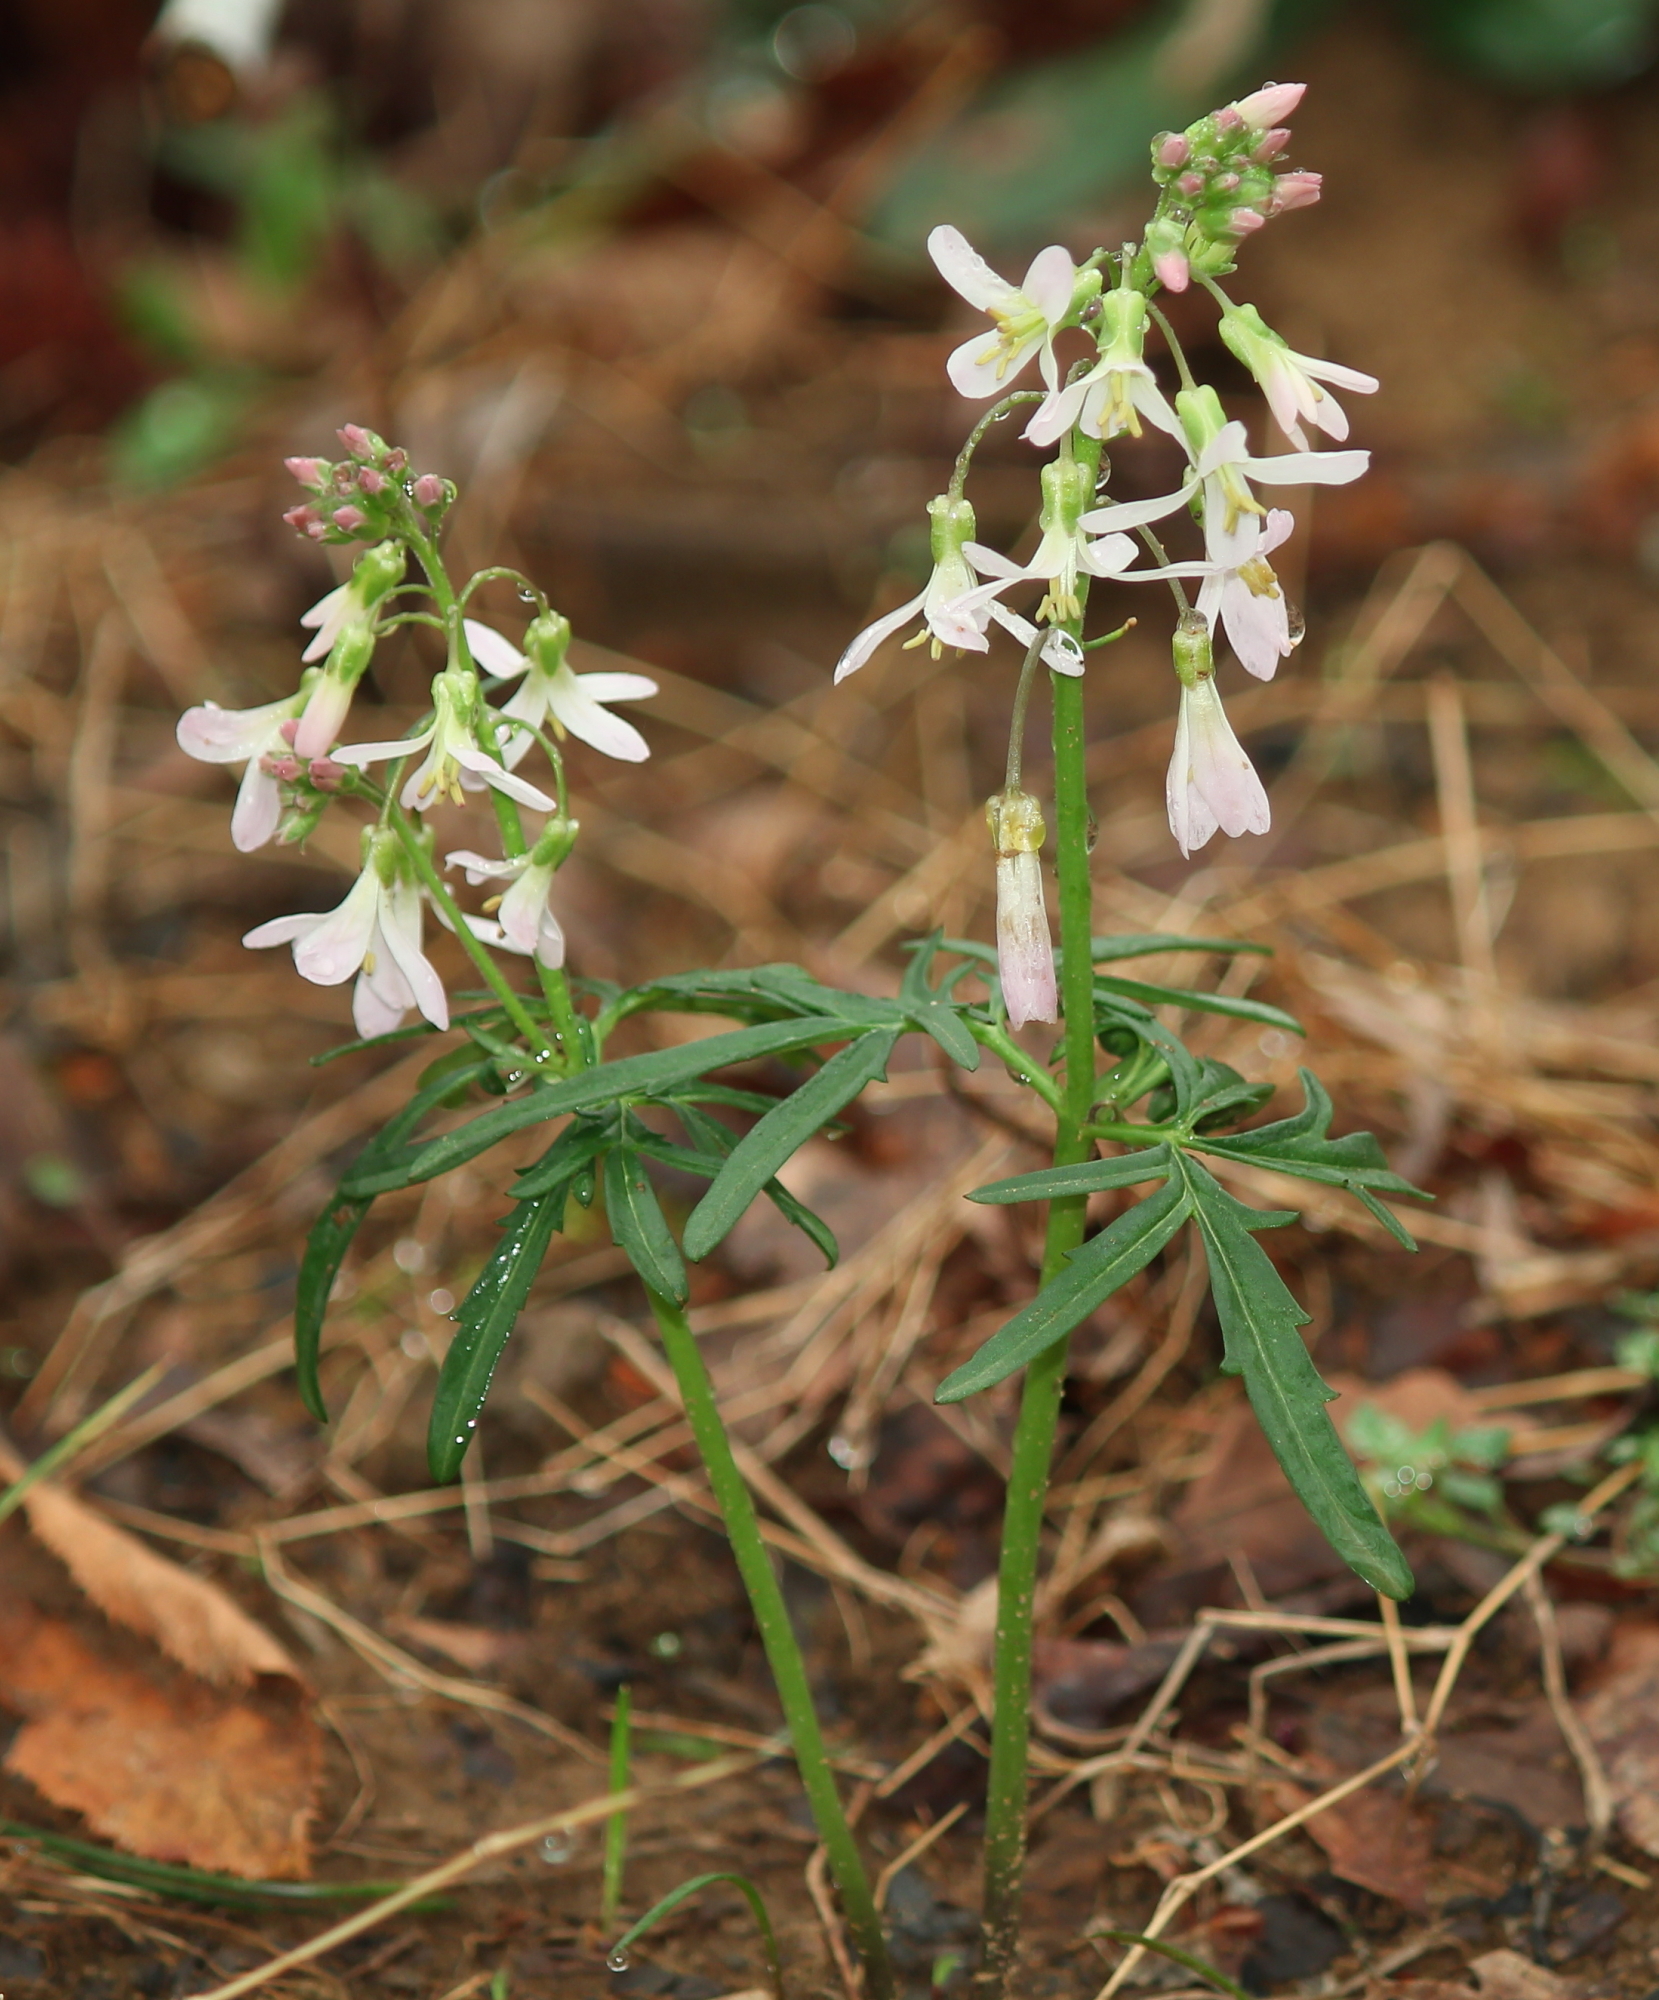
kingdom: Plantae
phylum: Tracheophyta
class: Magnoliopsida
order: Brassicales
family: Brassicaceae
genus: Cardamine
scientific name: Cardamine concatenata
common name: Cut-leaf toothcup
